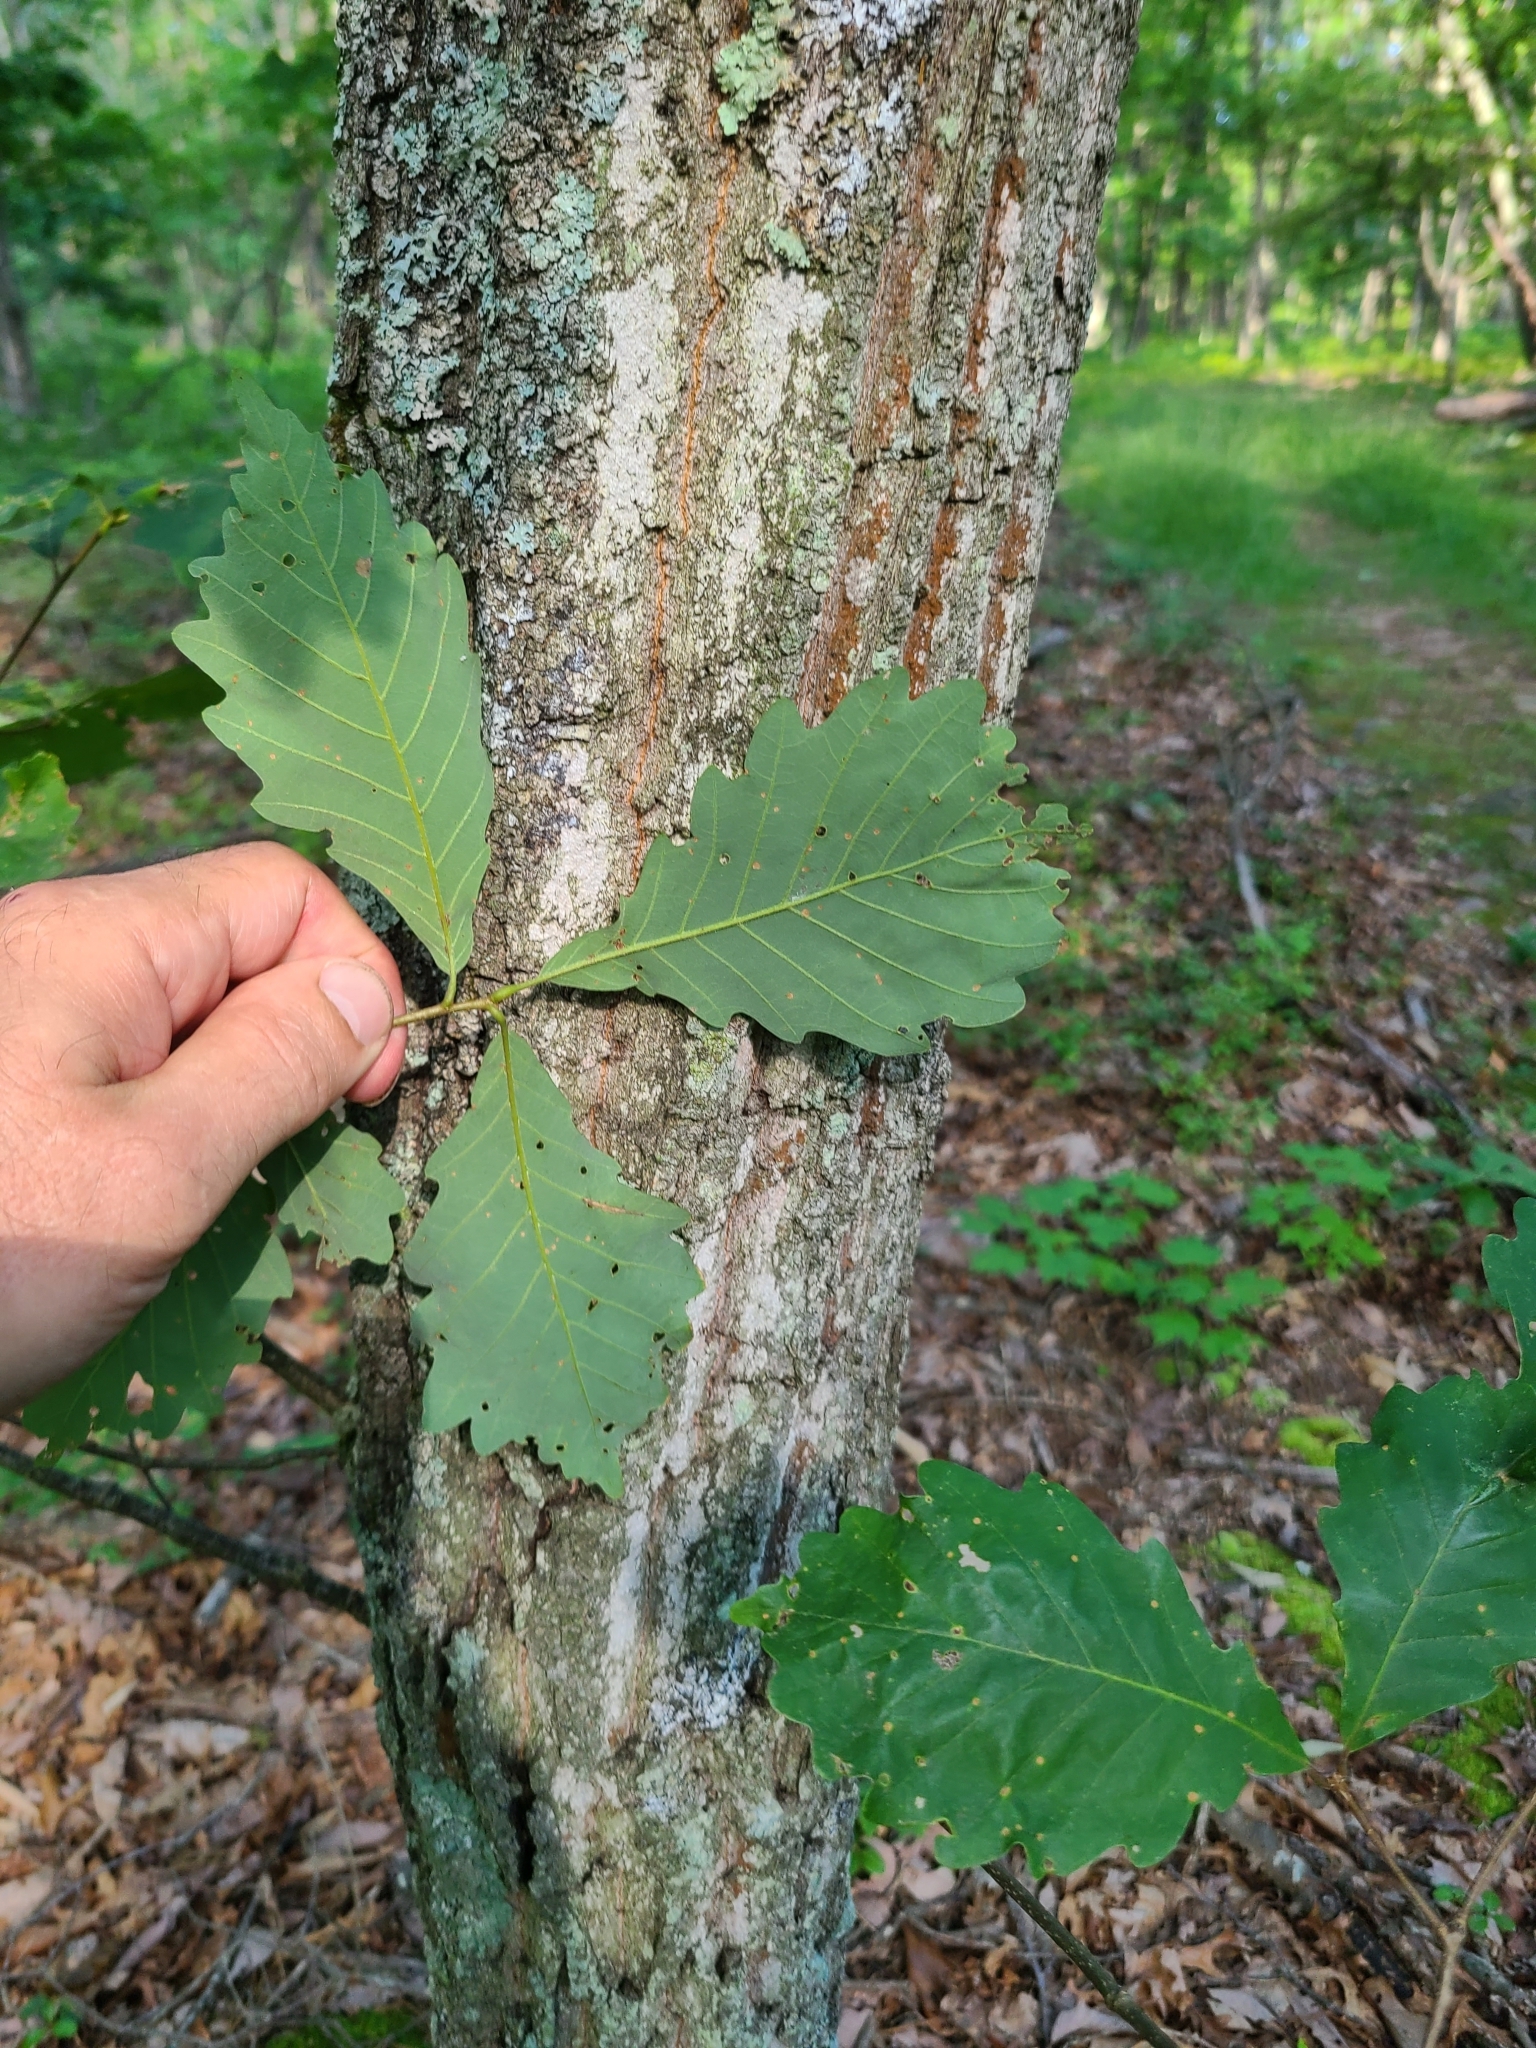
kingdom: Plantae
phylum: Tracheophyta
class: Magnoliopsida
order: Fagales
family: Fagaceae
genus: Quercus
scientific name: Quercus montana
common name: Chestnut oak
